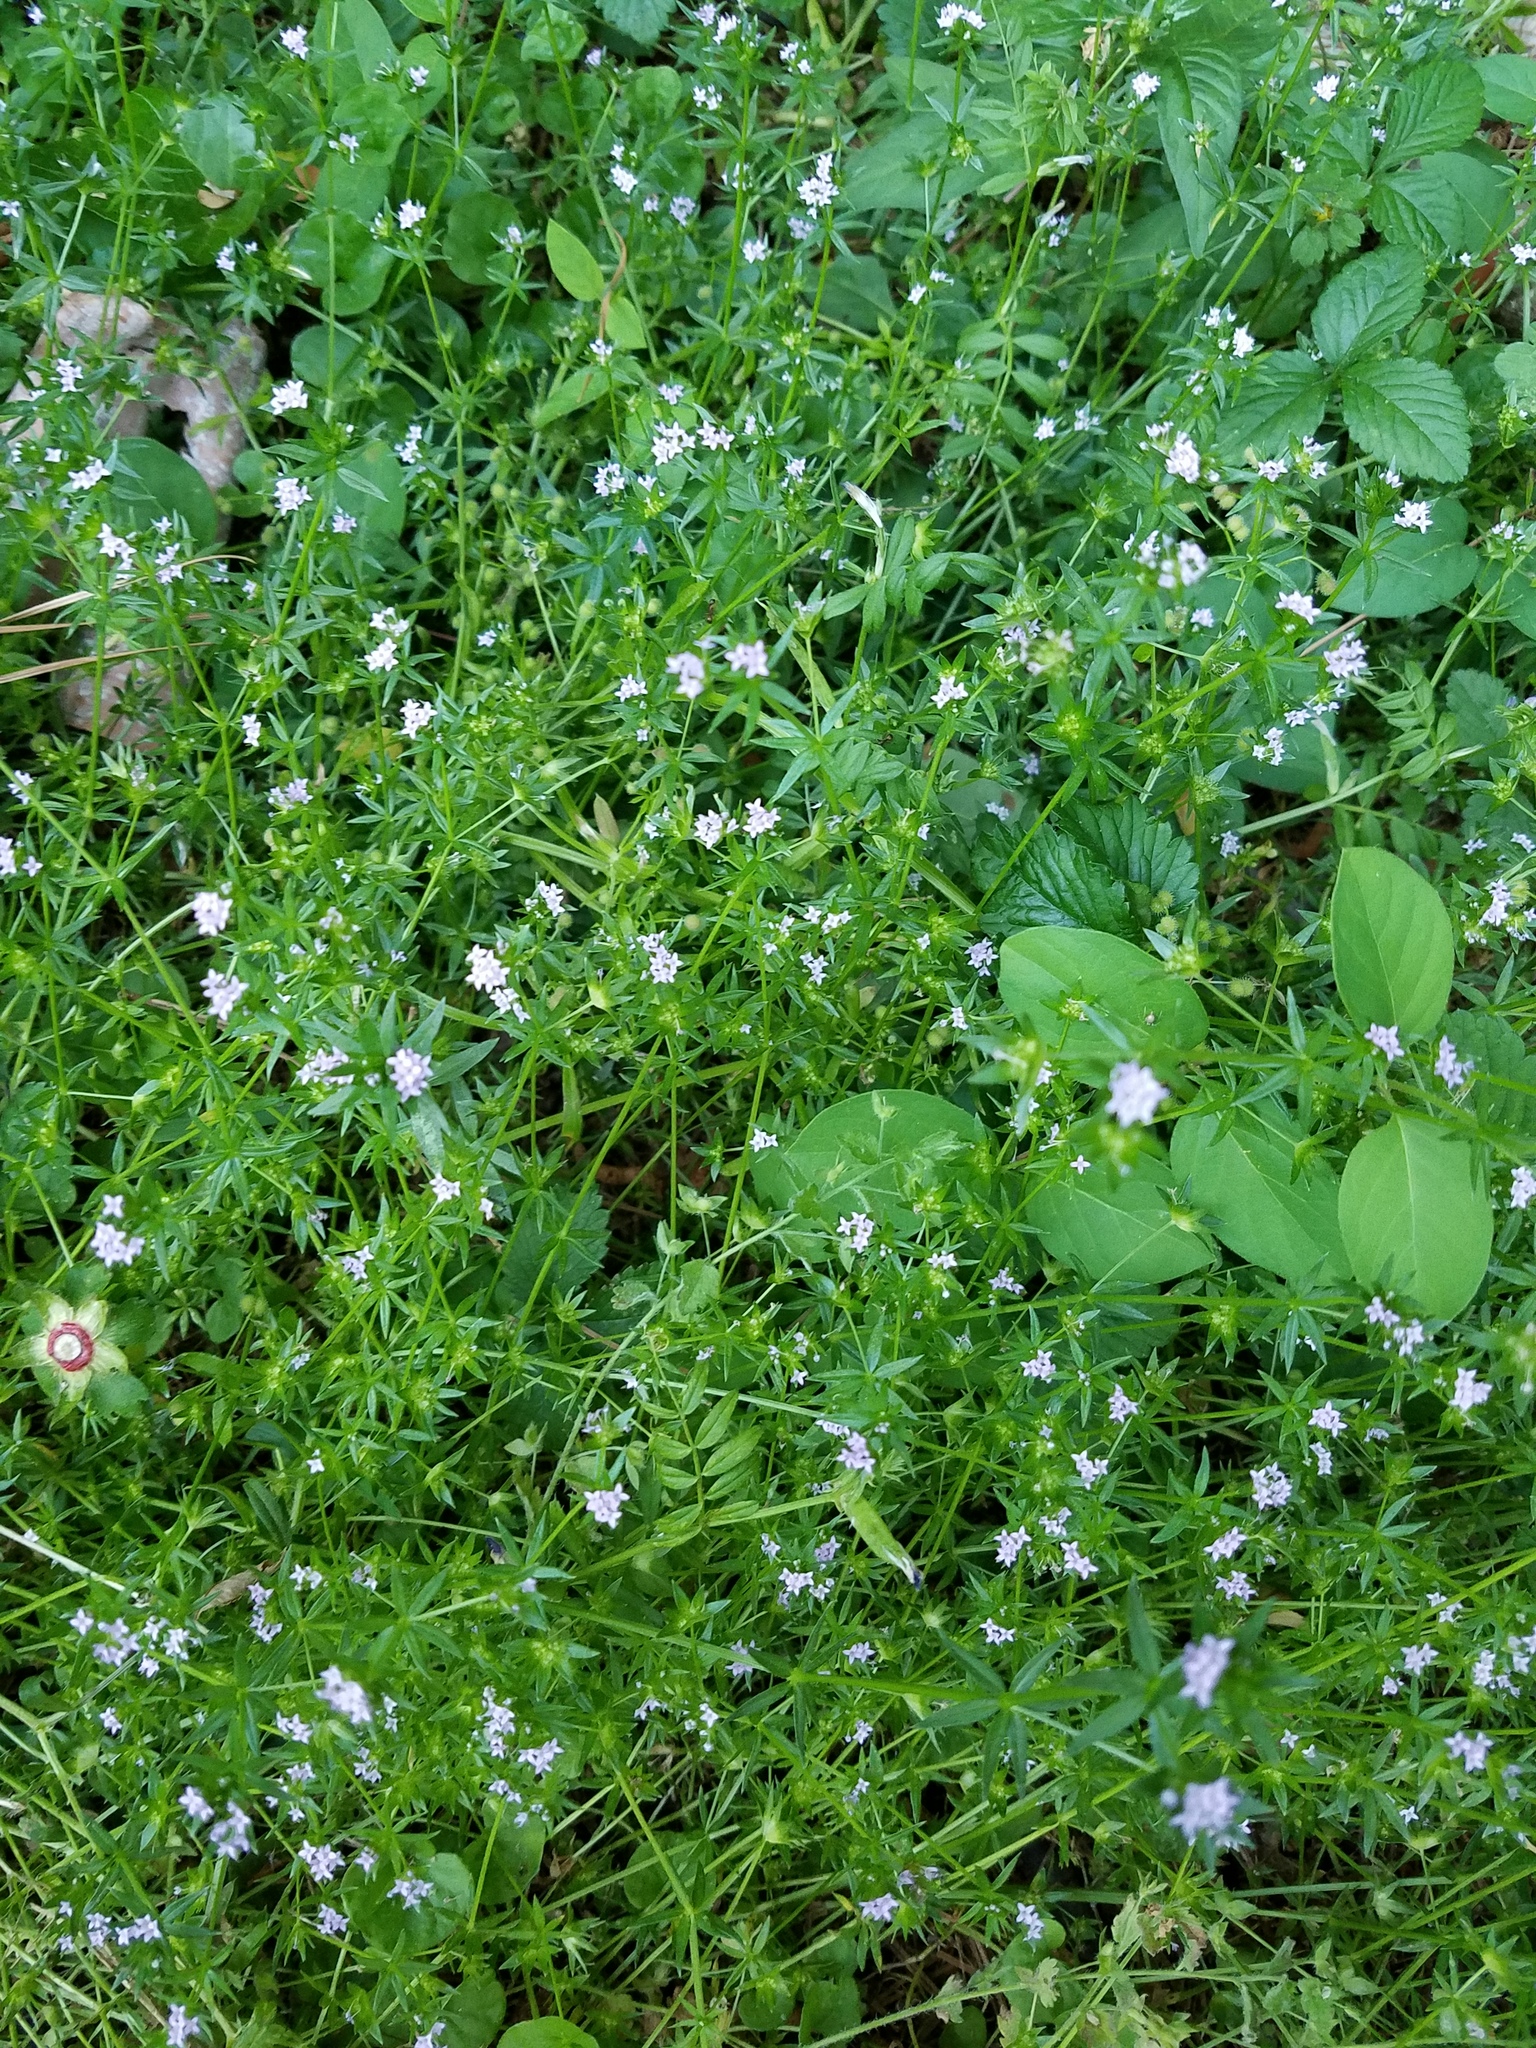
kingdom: Plantae
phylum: Tracheophyta
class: Magnoliopsida
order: Gentianales
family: Rubiaceae
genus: Sherardia
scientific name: Sherardia arvensis
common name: Field madder
